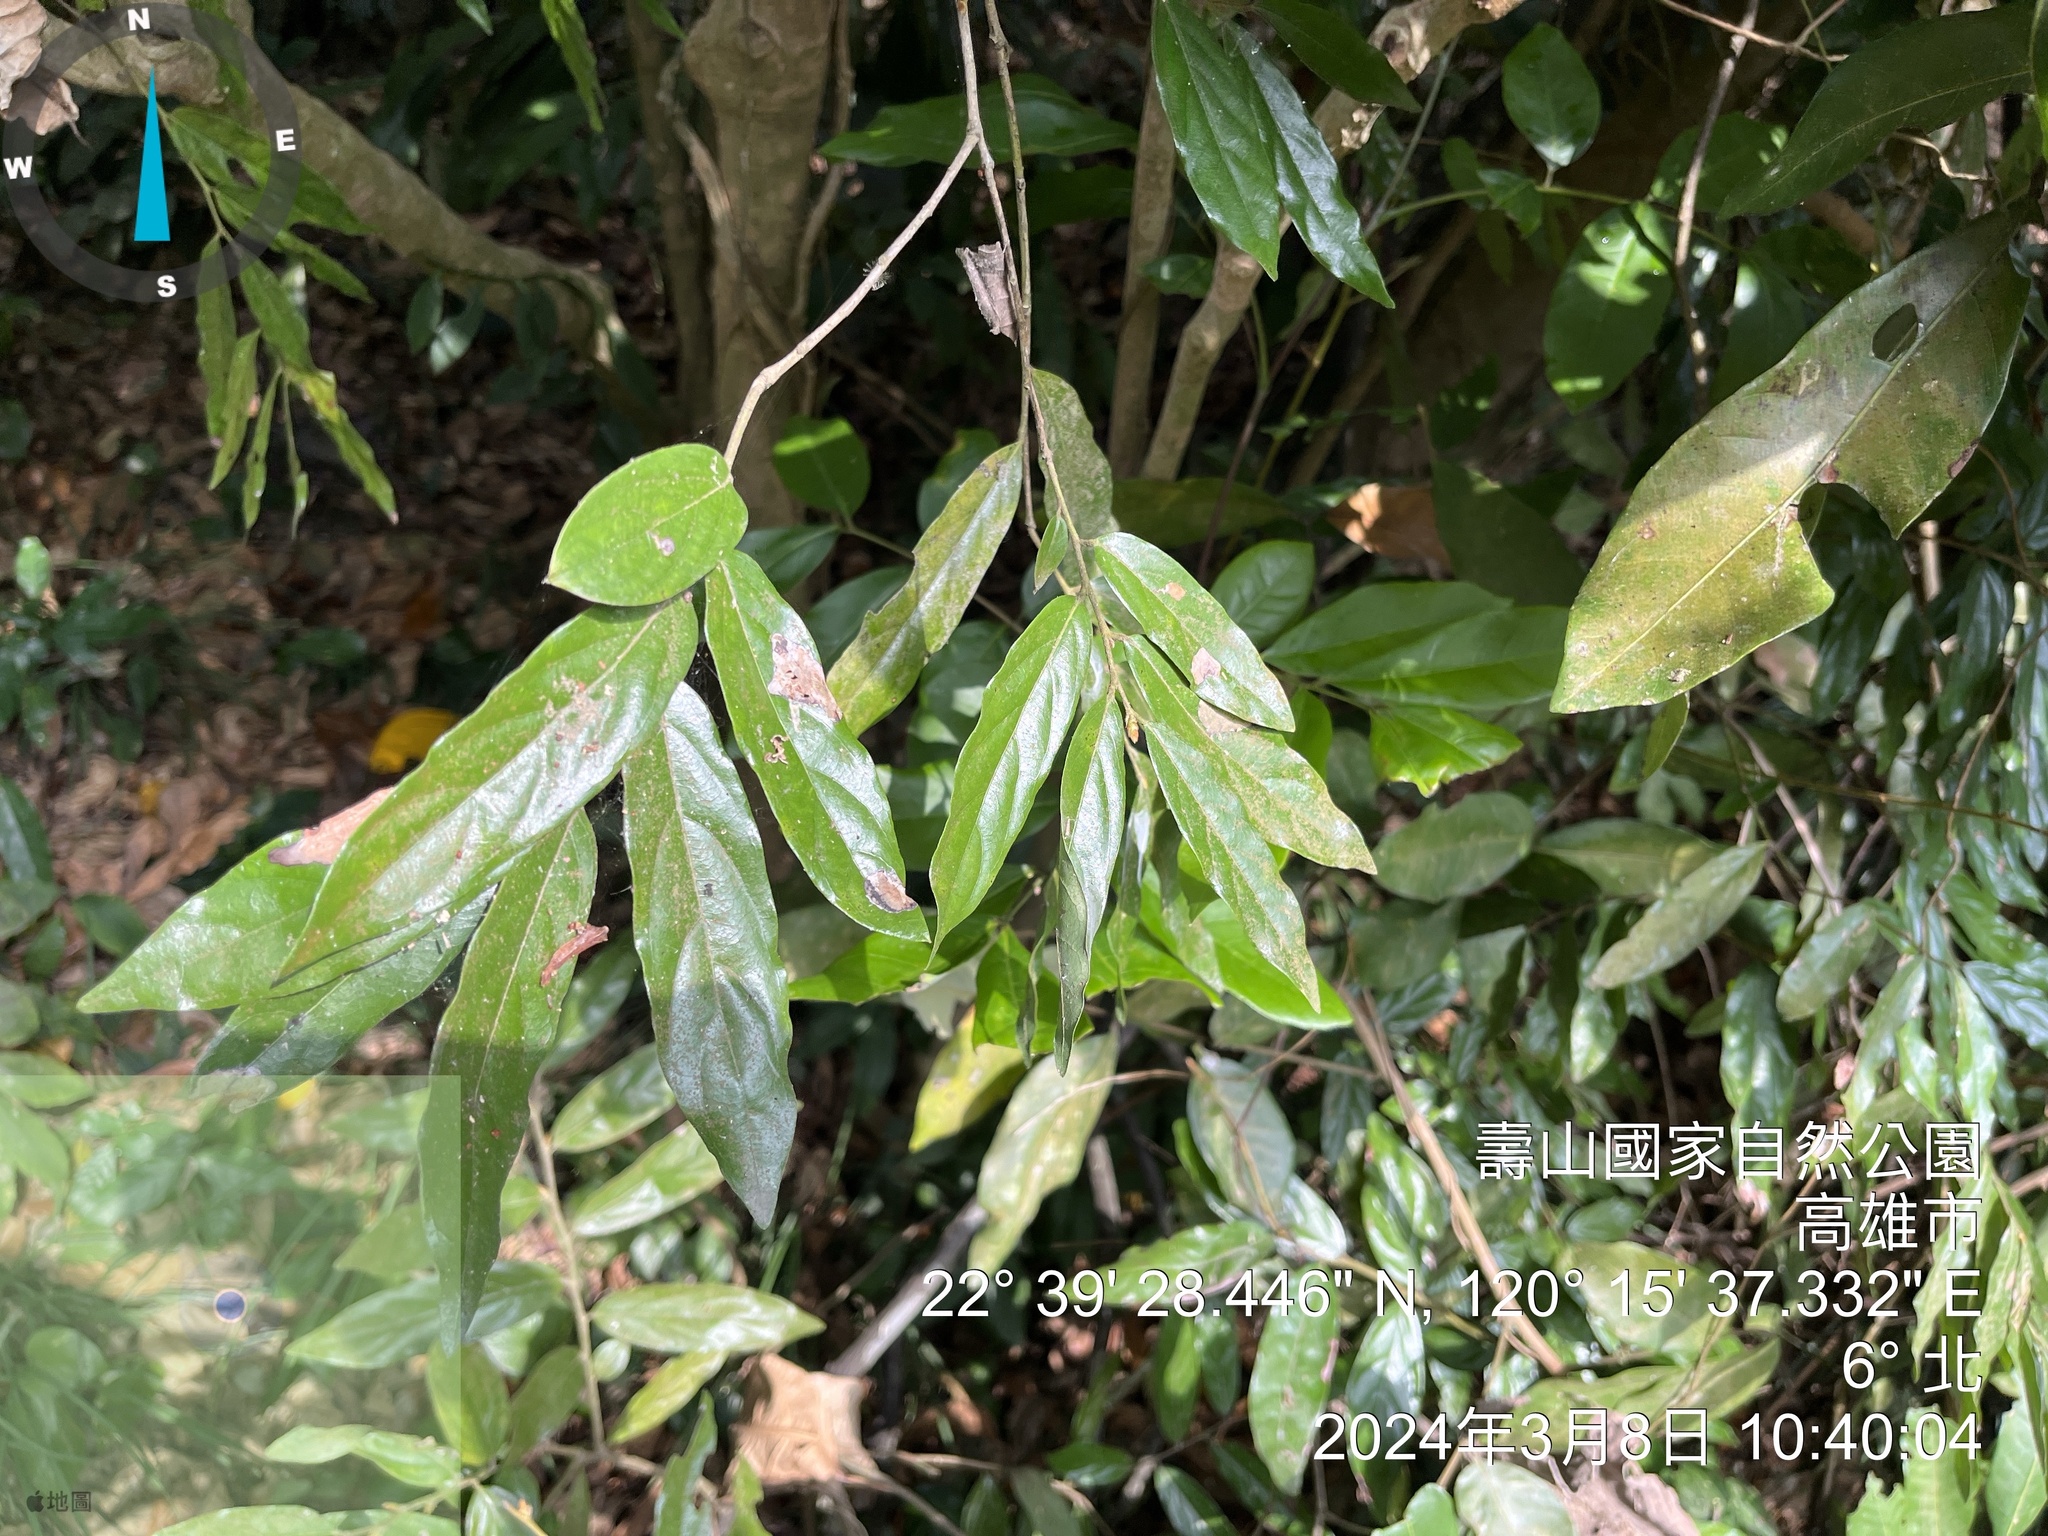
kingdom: Plantae
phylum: Tracheophyta
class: Magnoliopsida
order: Ericales
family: Ebenaceae
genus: Diospyros
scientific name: Diospyros eriantha
